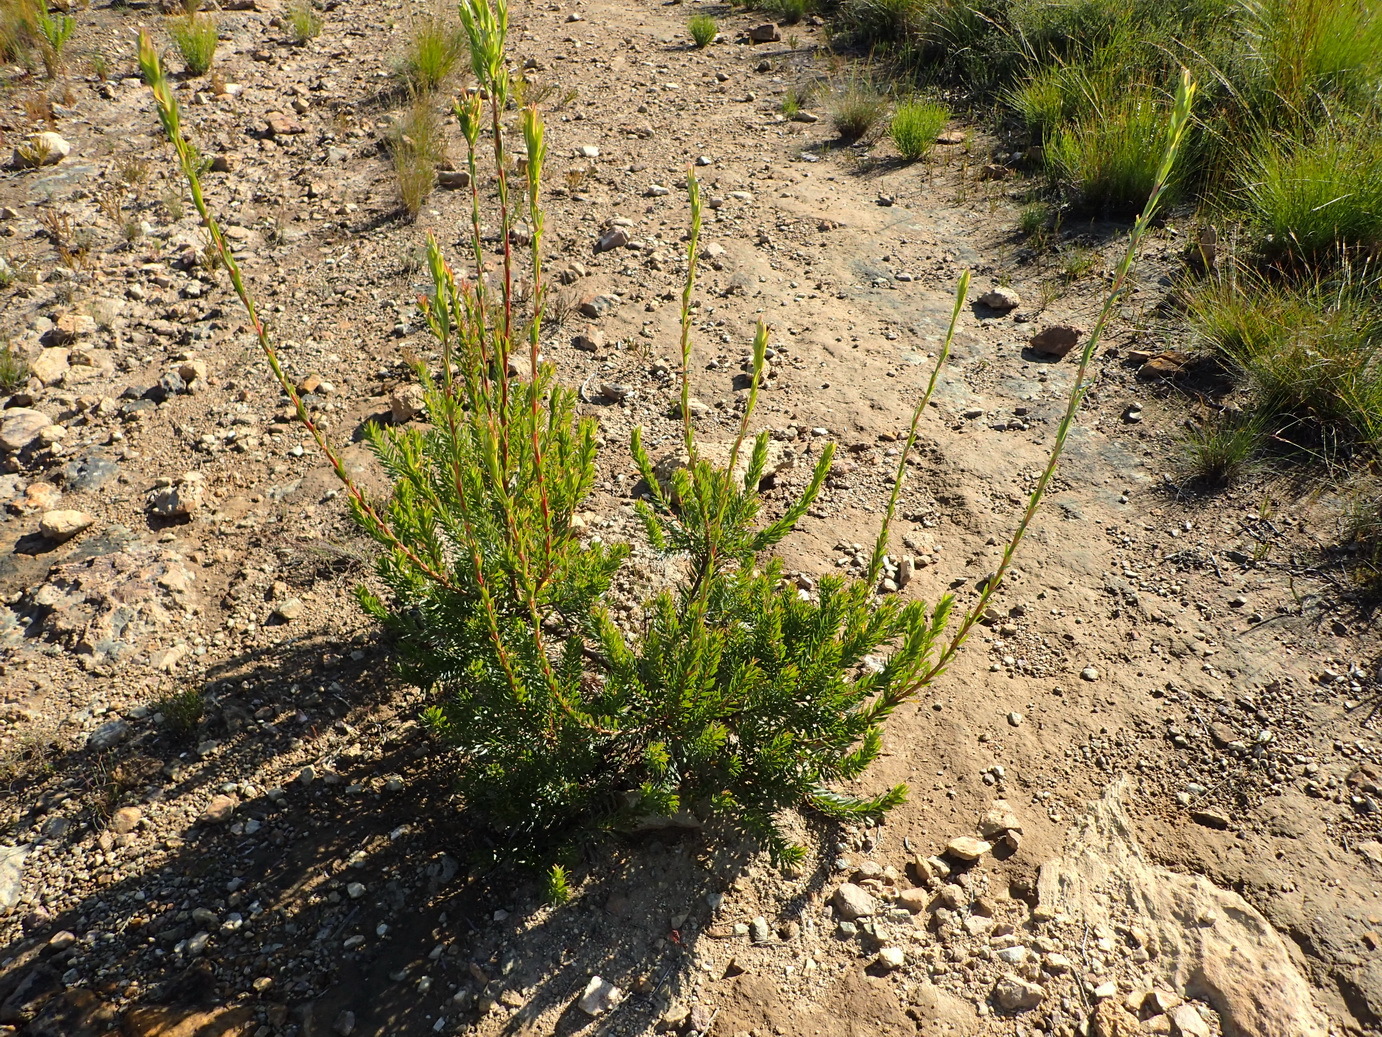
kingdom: Plantae
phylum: Tracheophyta
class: Magnoliopsida
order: Proteales
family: Proteaceae
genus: Leucadendron
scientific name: Leucadendron uliginosum
